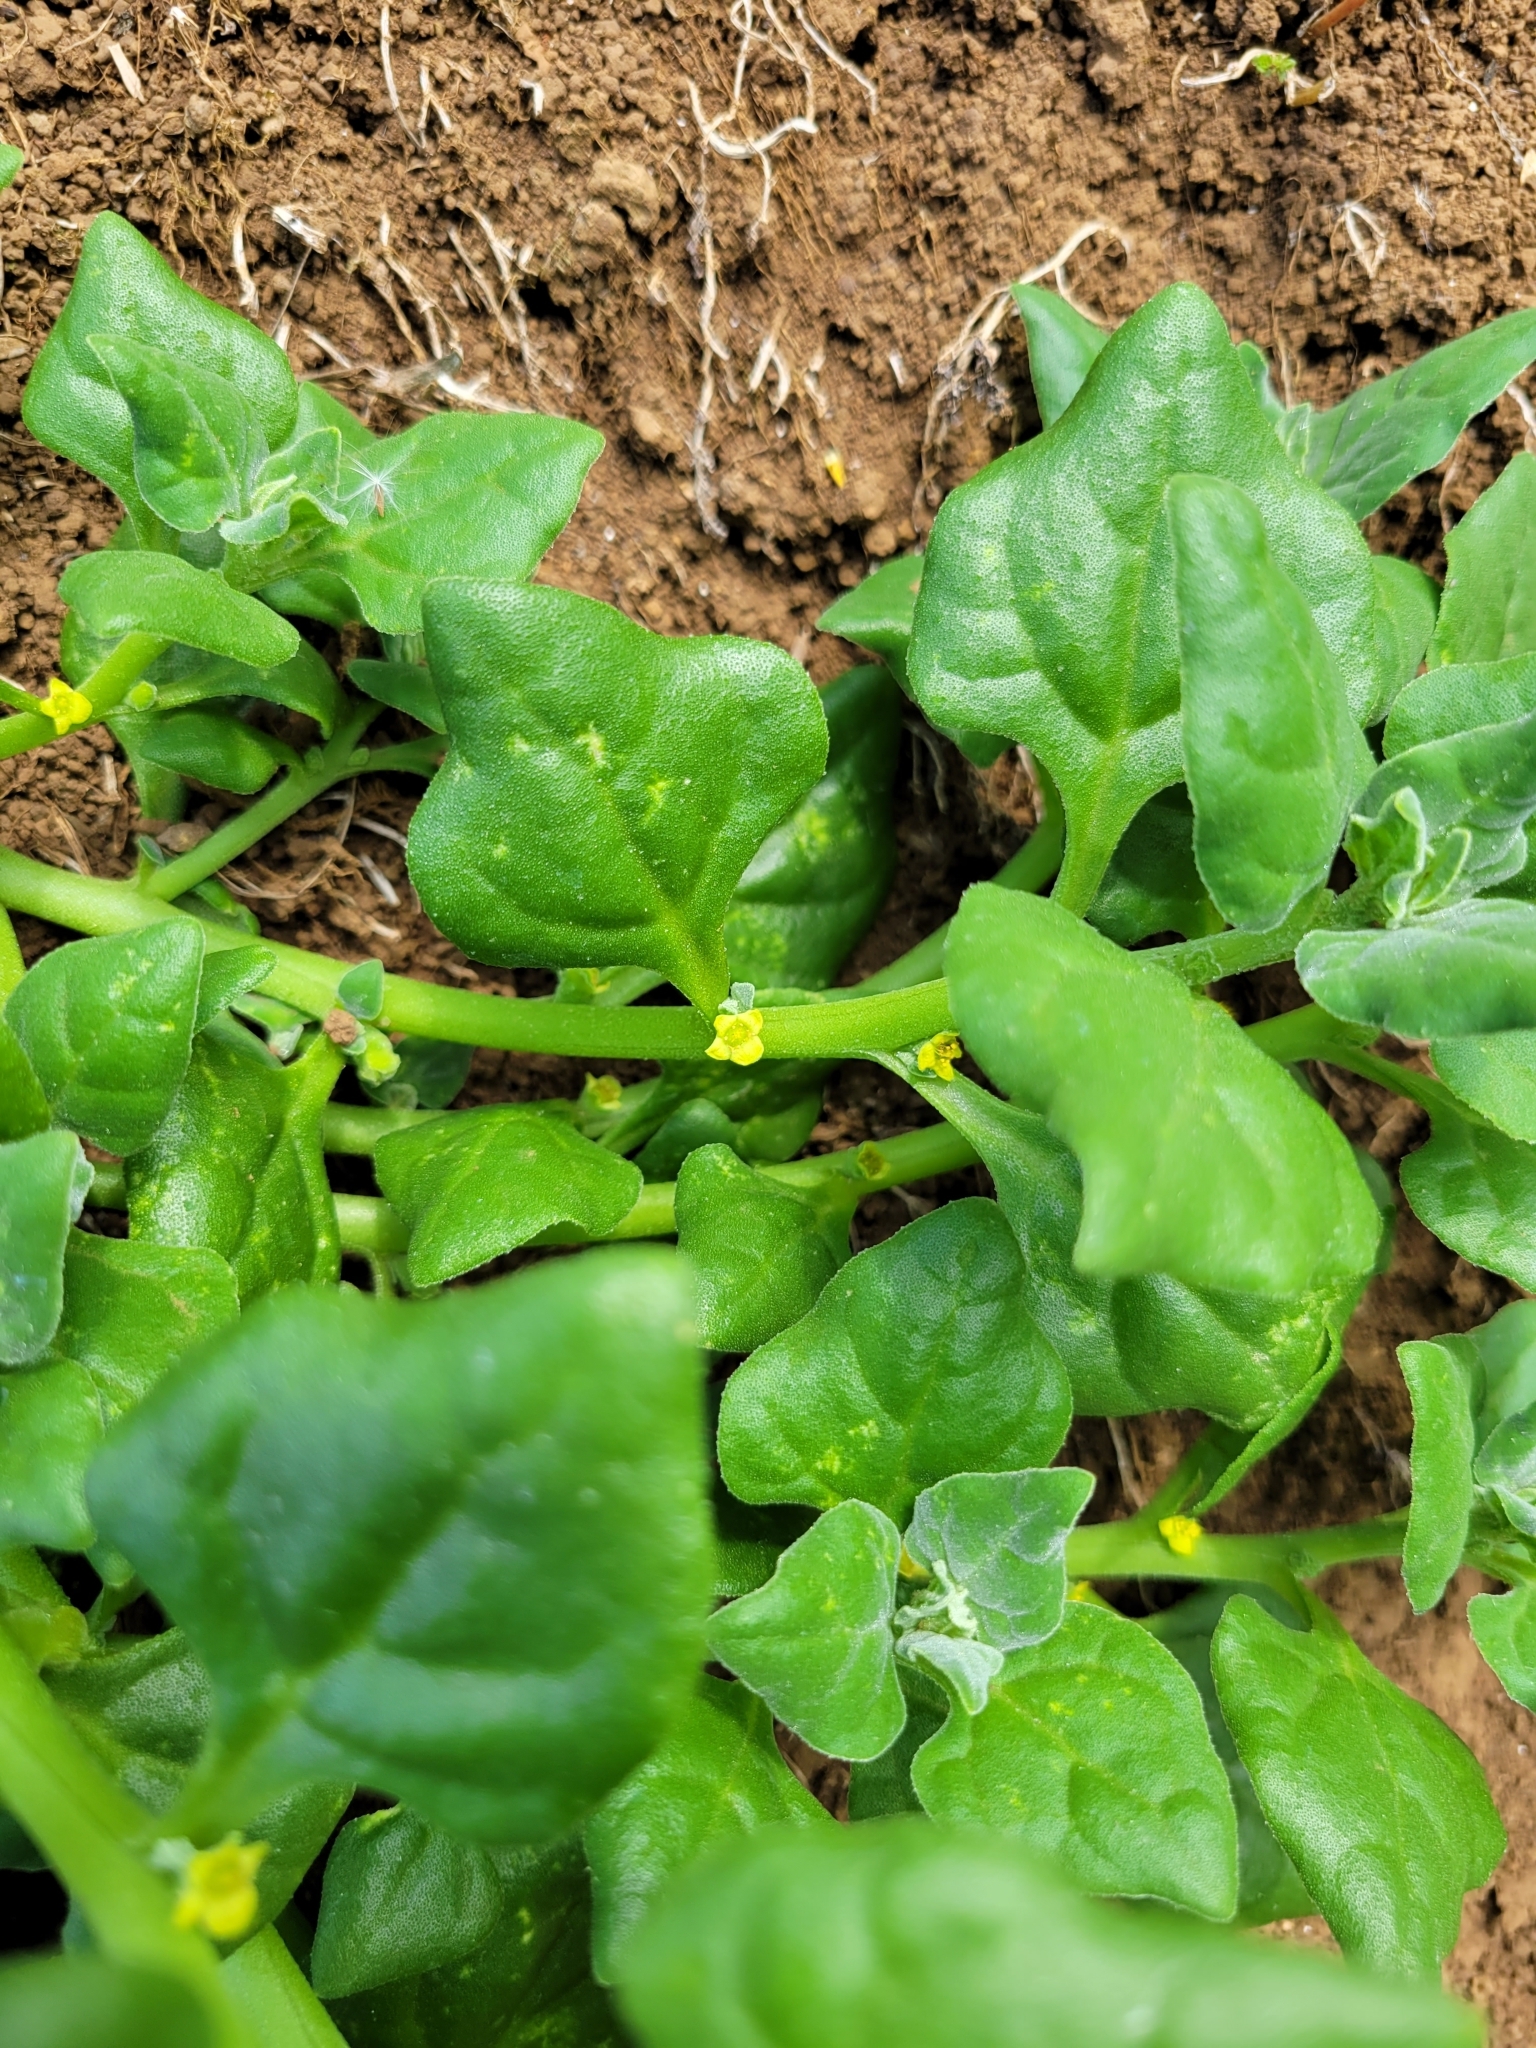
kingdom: Plantae
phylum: Tracheophyta
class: Magnoliopsida
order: Caryophyllales
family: Aizoaceae
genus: Tetragonia
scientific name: Tetragonia tetragonoides
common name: New zealand-spinach
